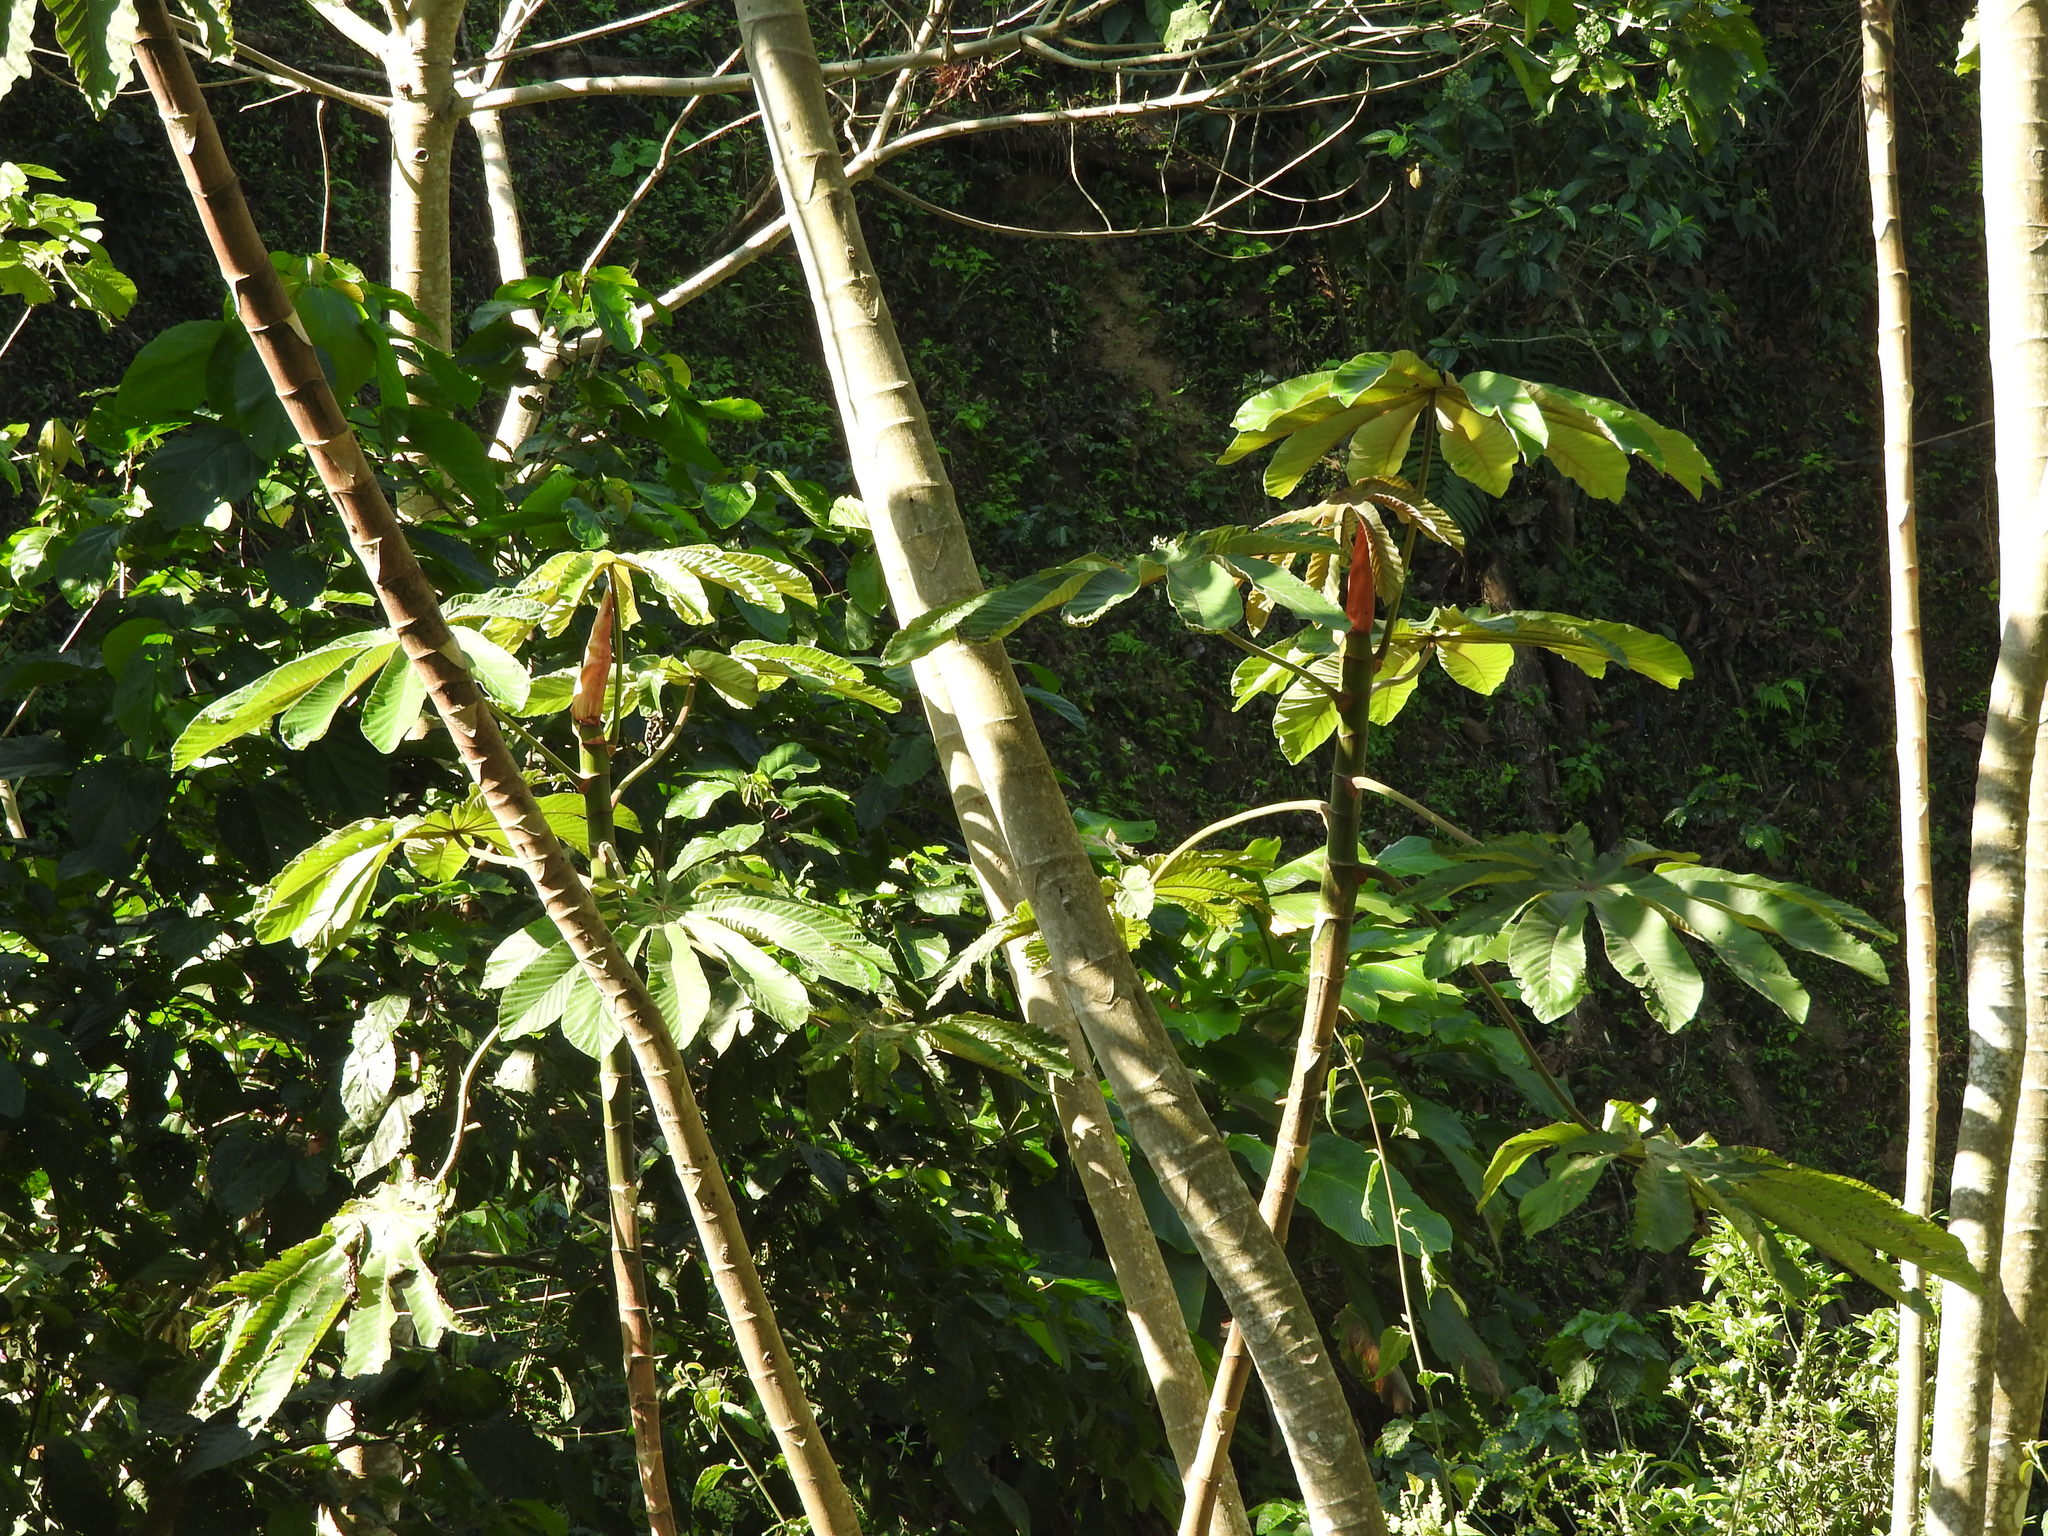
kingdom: Plantae
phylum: Tracheophyta
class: Magnoliopsida
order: Rosales
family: Urticaceae
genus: Cecropia
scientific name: Cecropia obtusifolia
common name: Trumpet tree
